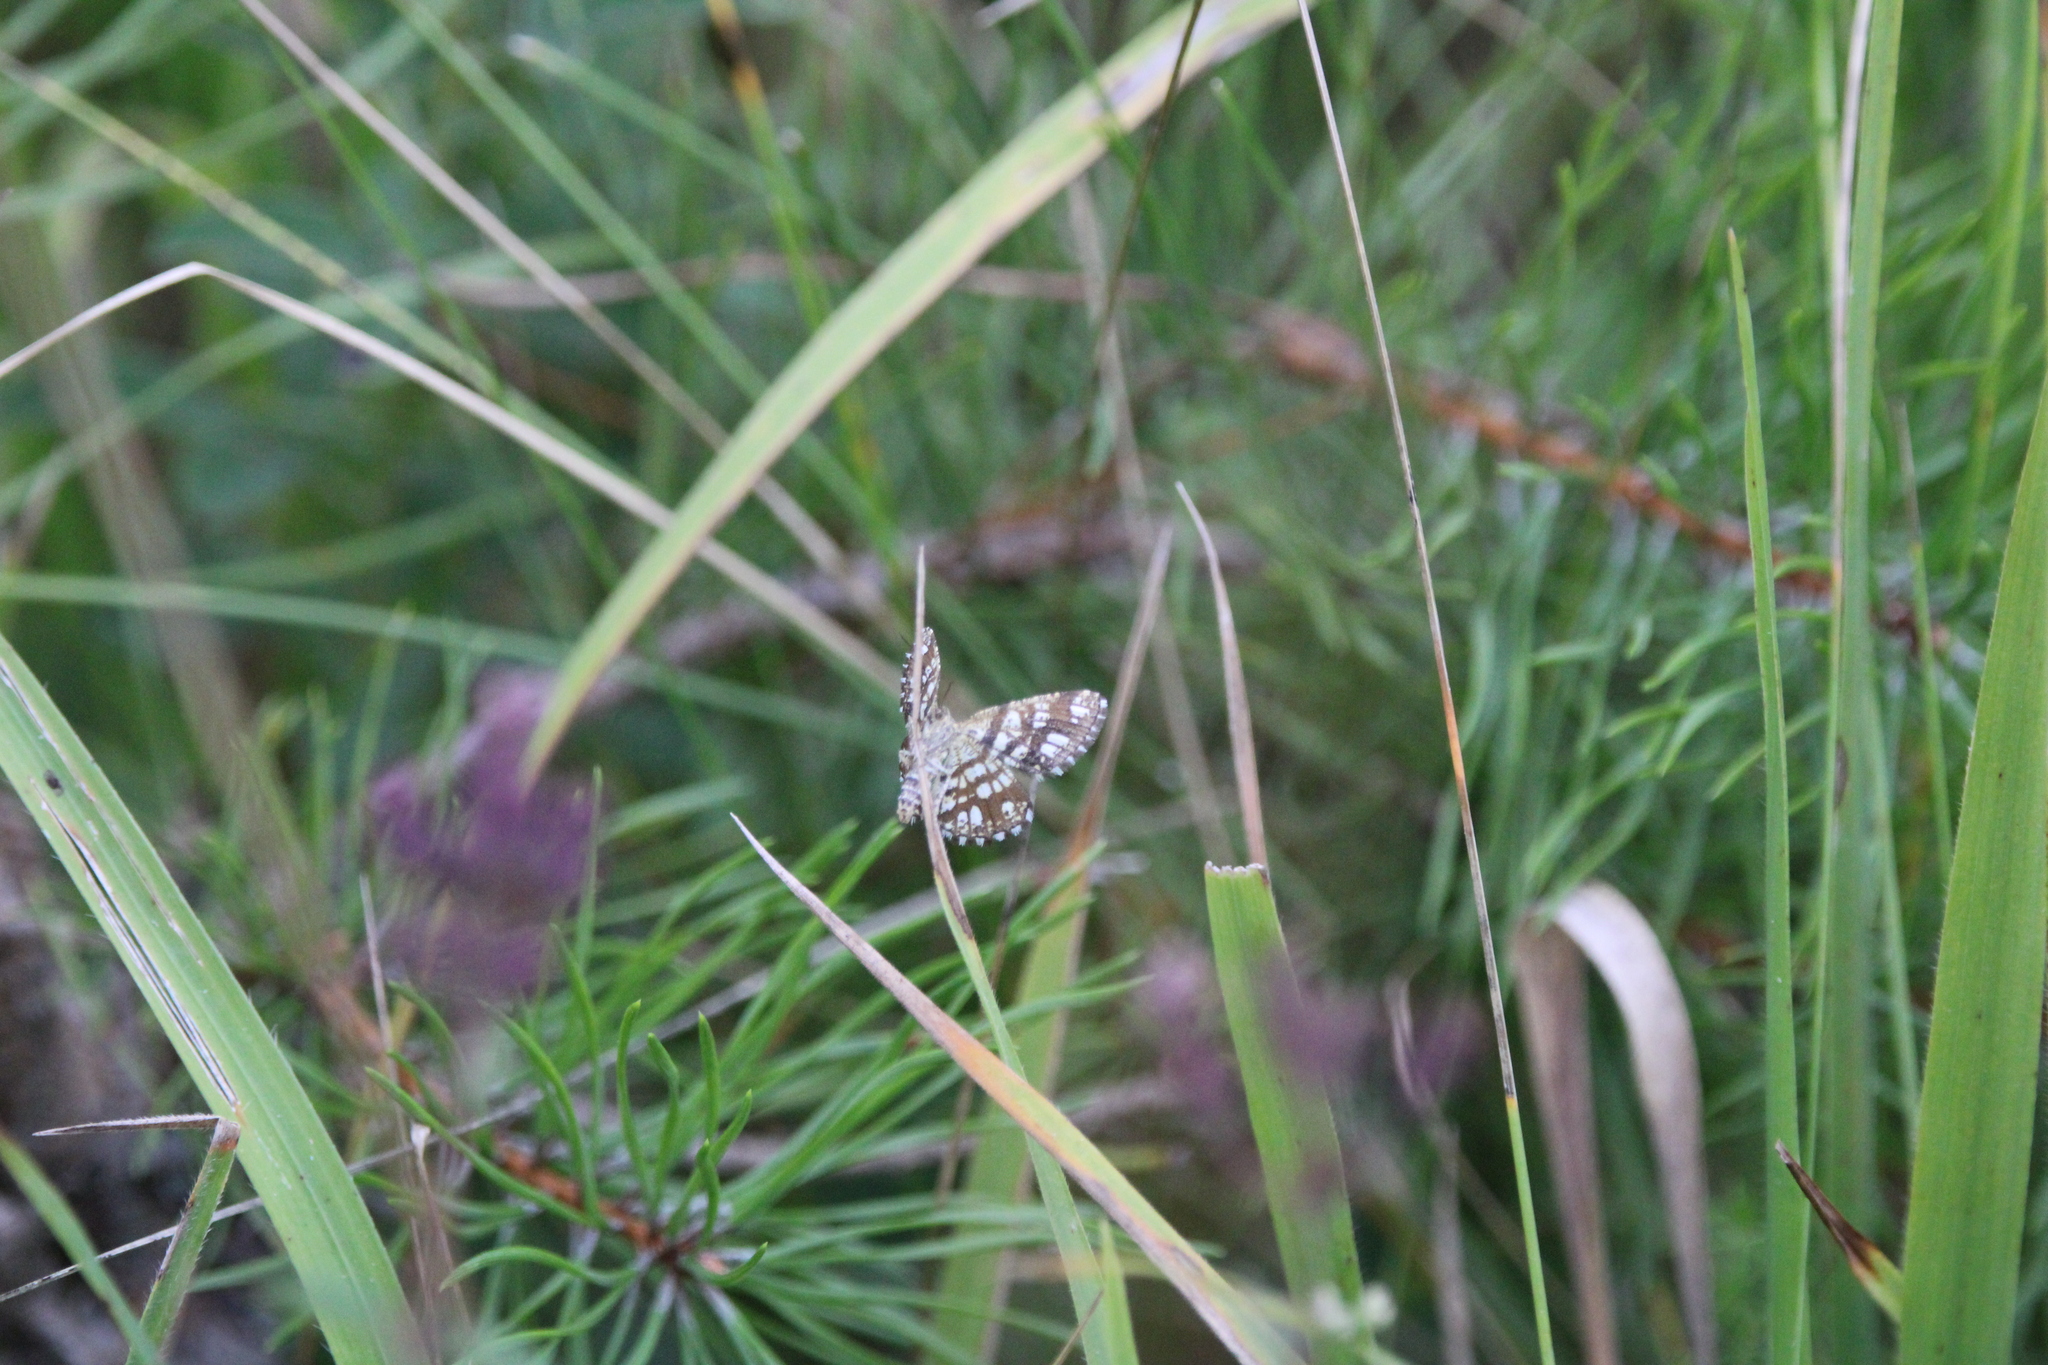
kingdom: Animalia
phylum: Arthropoda
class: Insecta
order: Lepidoptera
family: Geometridae
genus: Chiasmia
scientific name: Chiasmia clathrata
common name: Latticed heath
